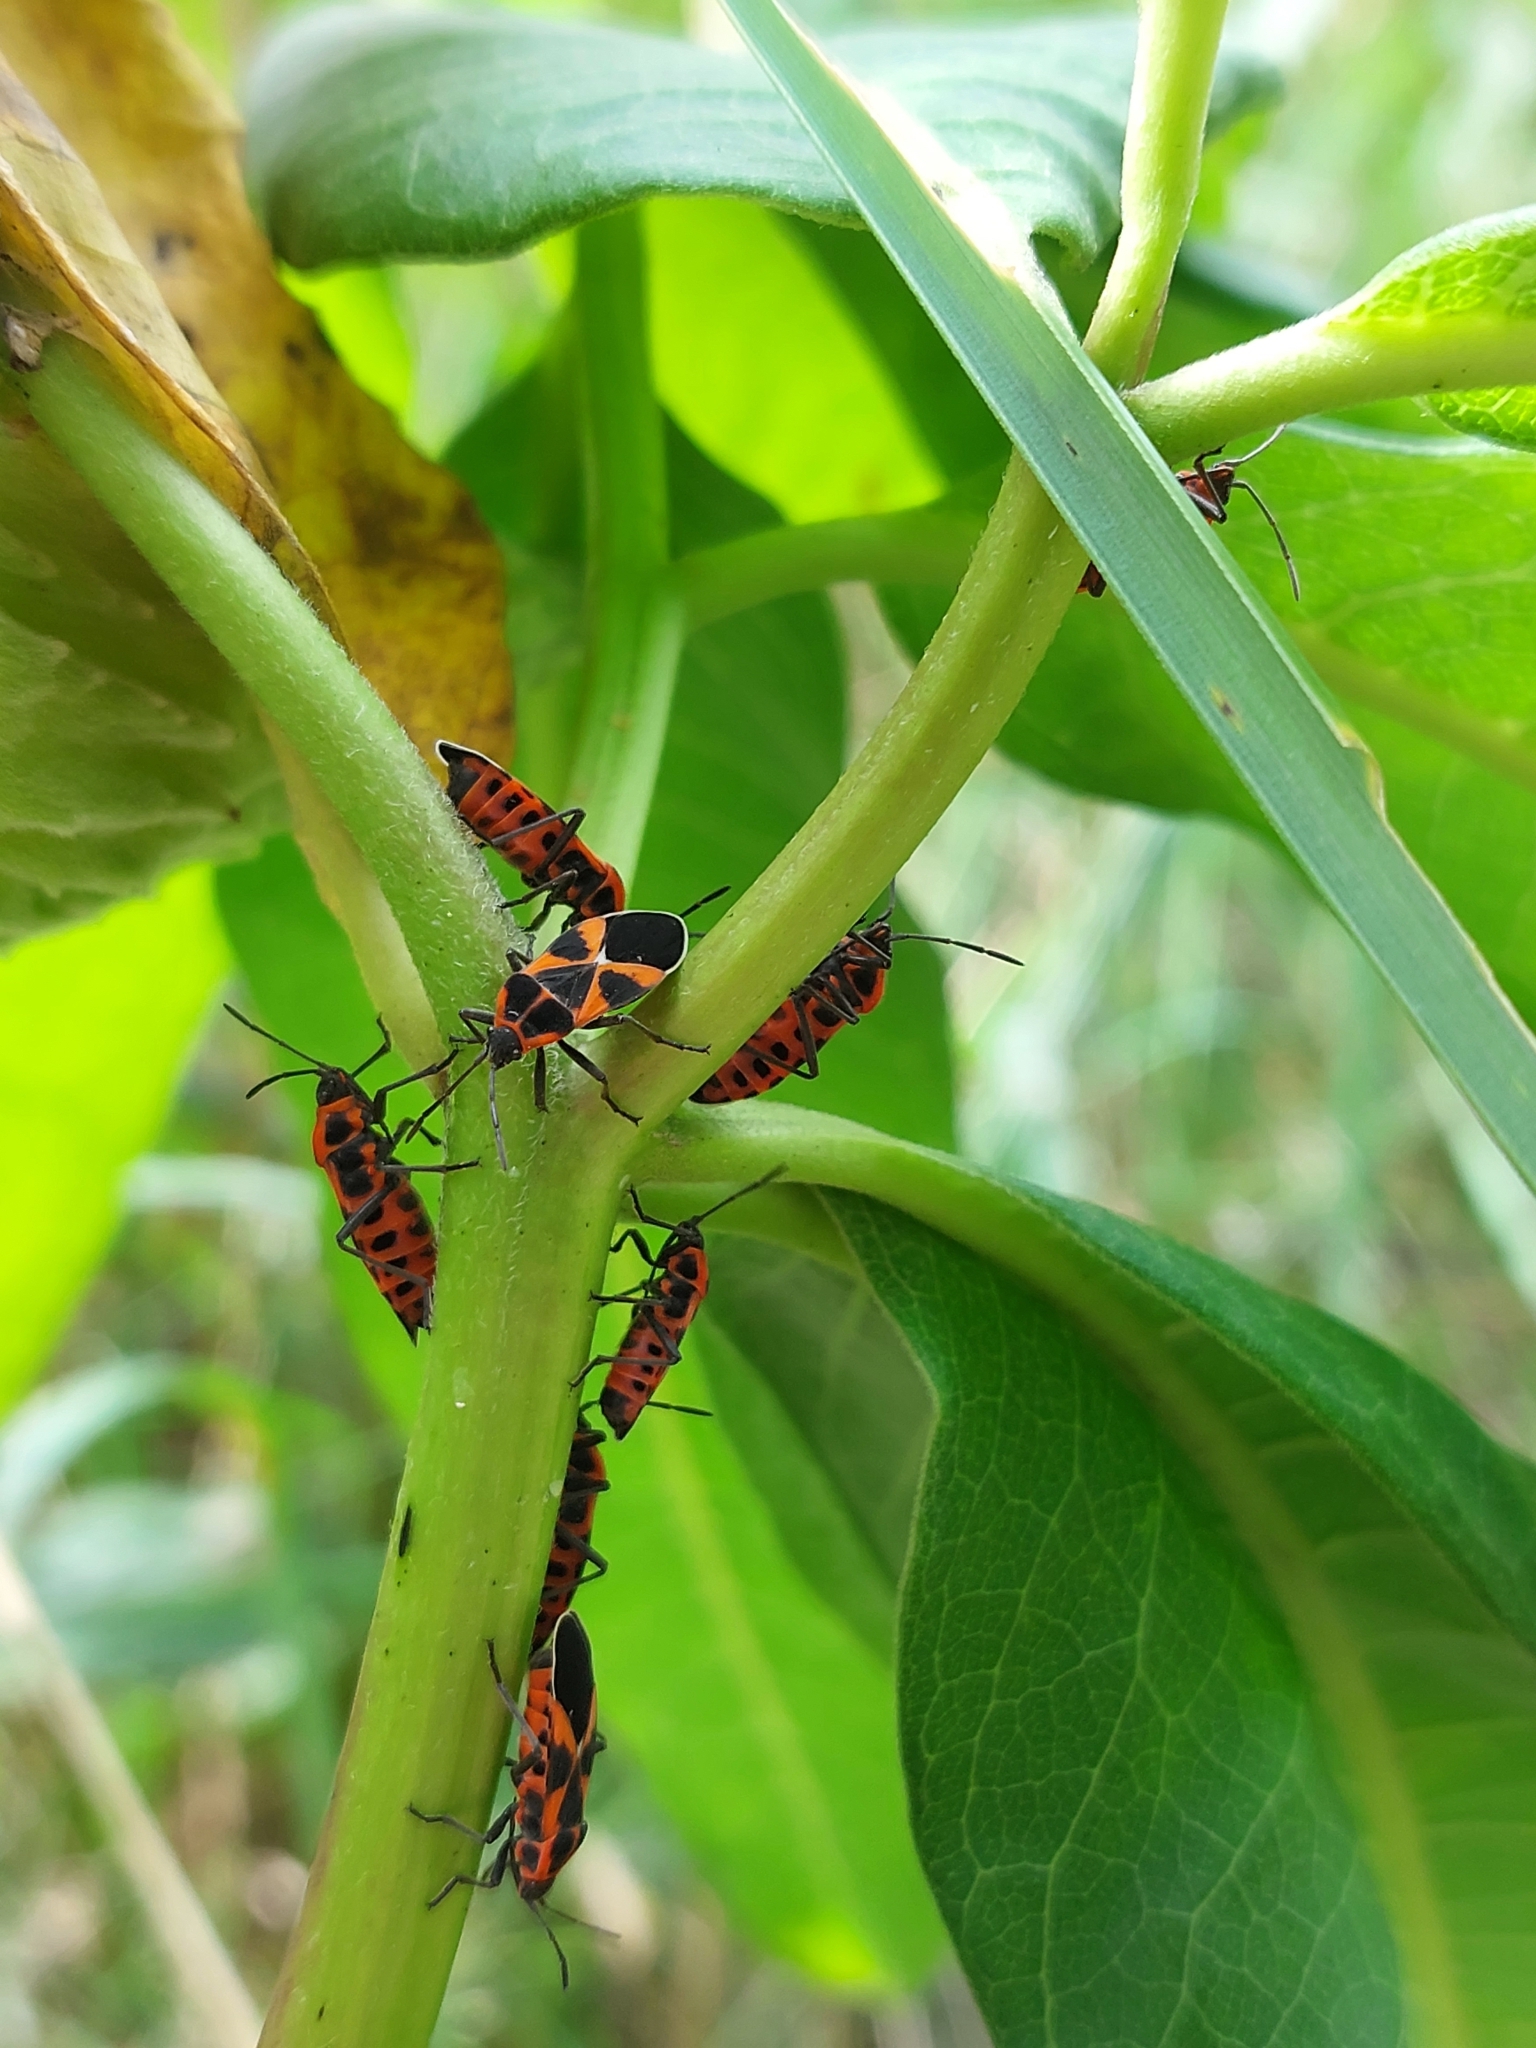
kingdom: Animalia
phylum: Arthropoda
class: Insecta
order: Hemiptera
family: Lygaeidae
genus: Tropidothorax
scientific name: Tropidothorax leucopterus
